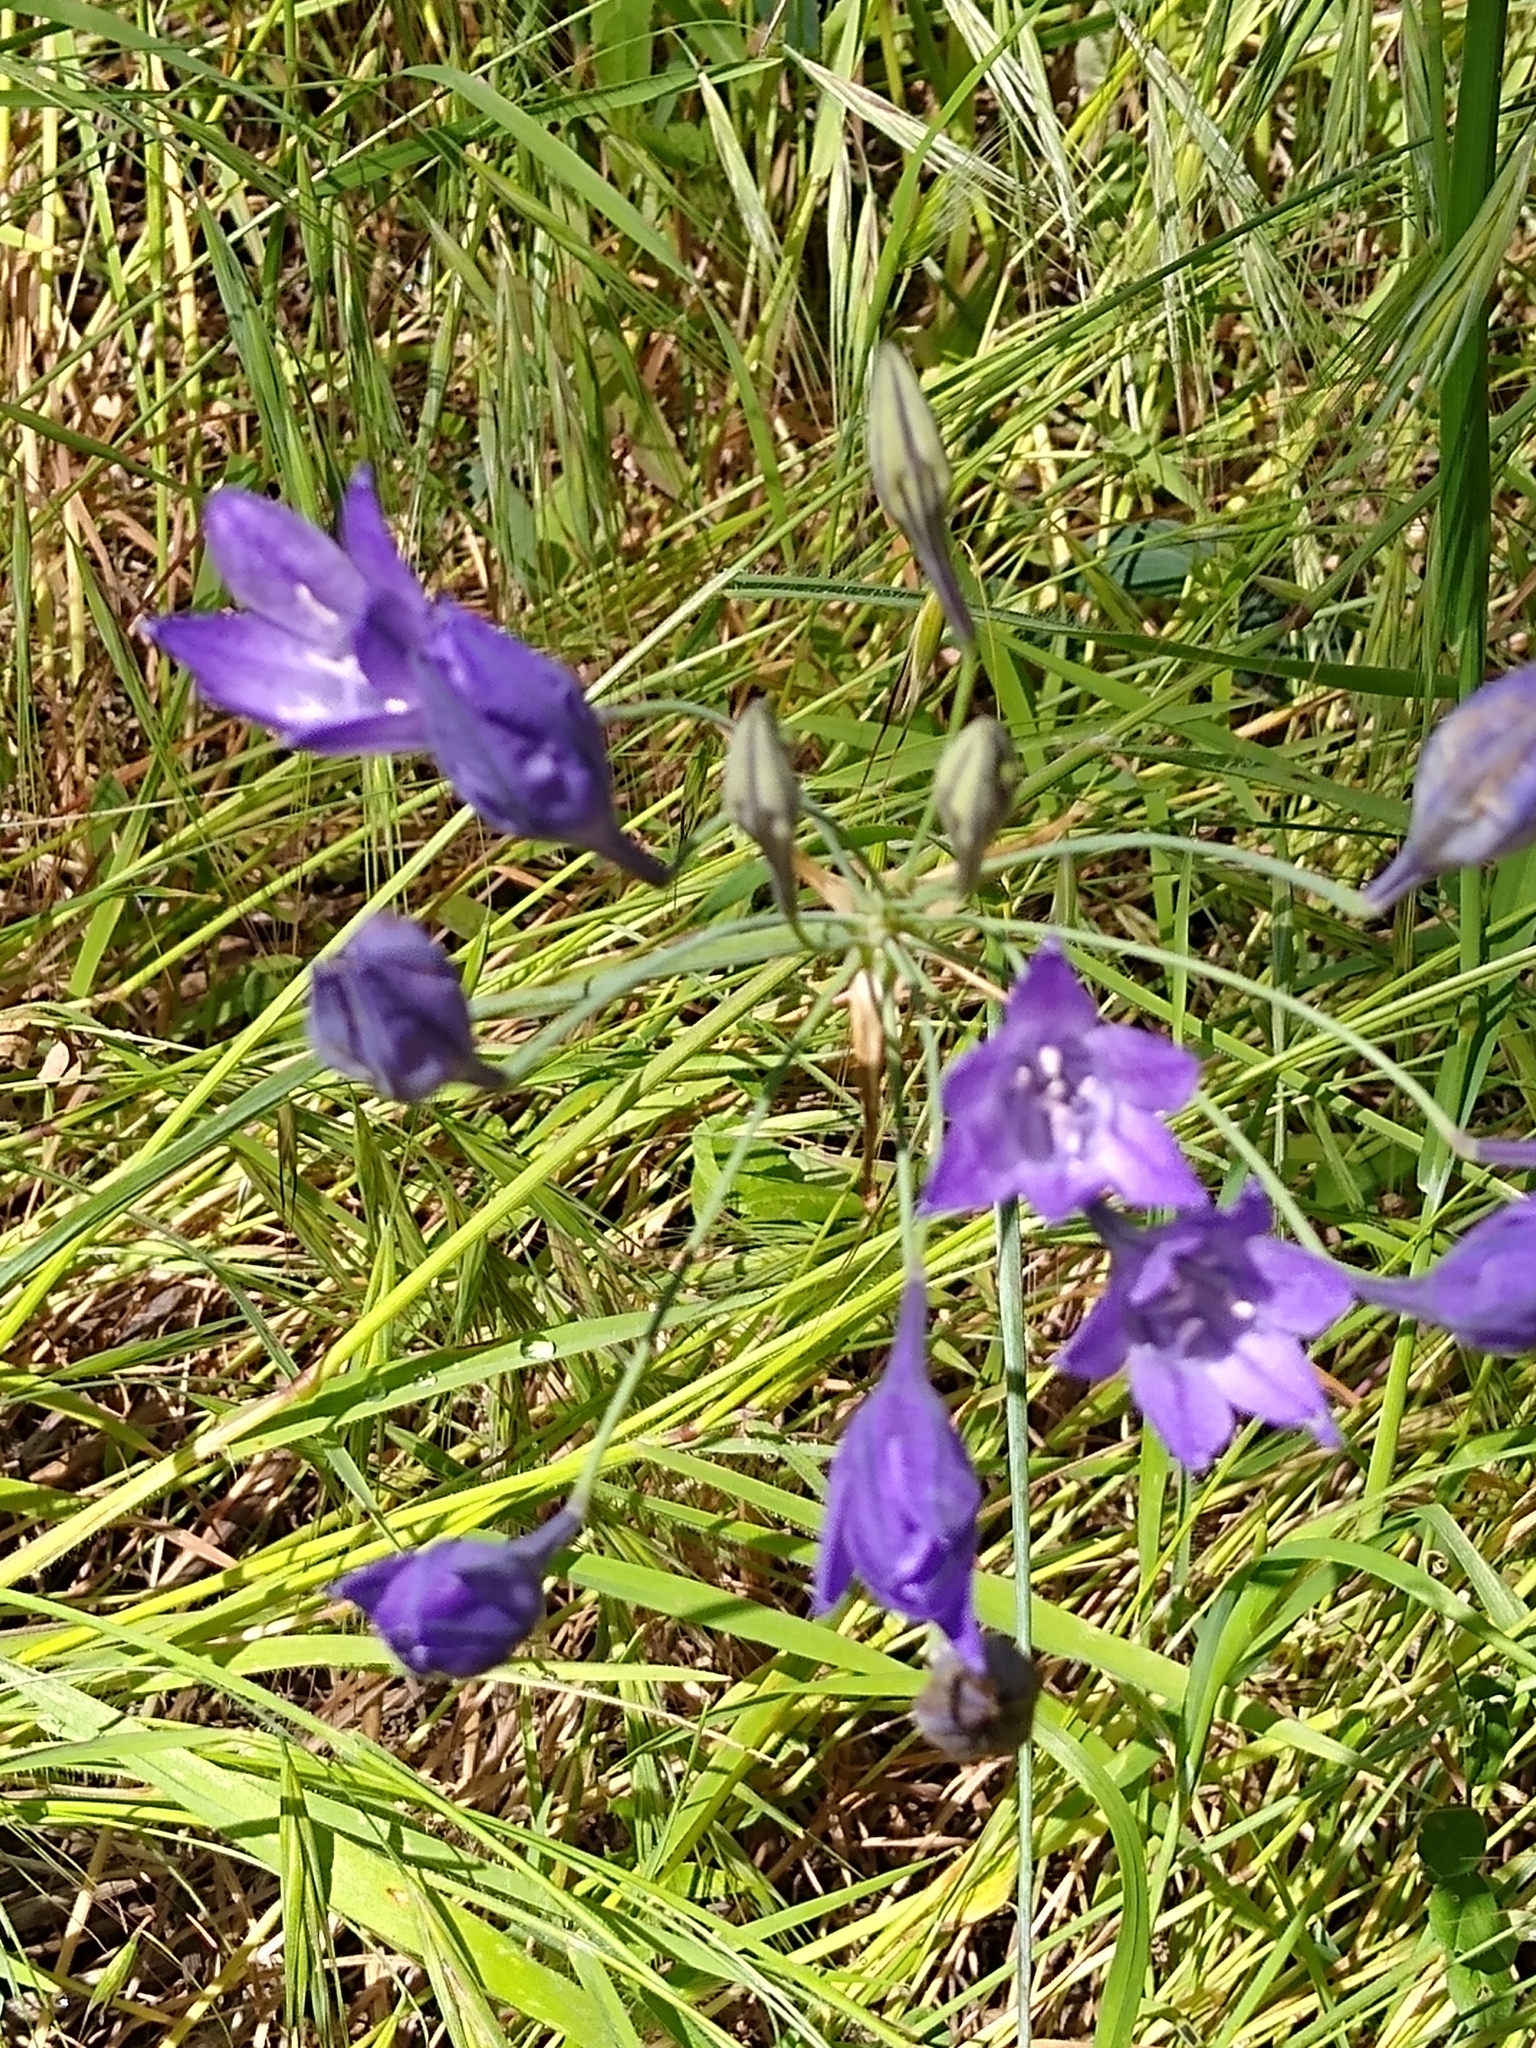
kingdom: Plantae
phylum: Tracheophyta
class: Liliopsida
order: Asparagales
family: Asparagaceae
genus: Triteleia
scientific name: Triteleia laxa
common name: Triplet-lily
